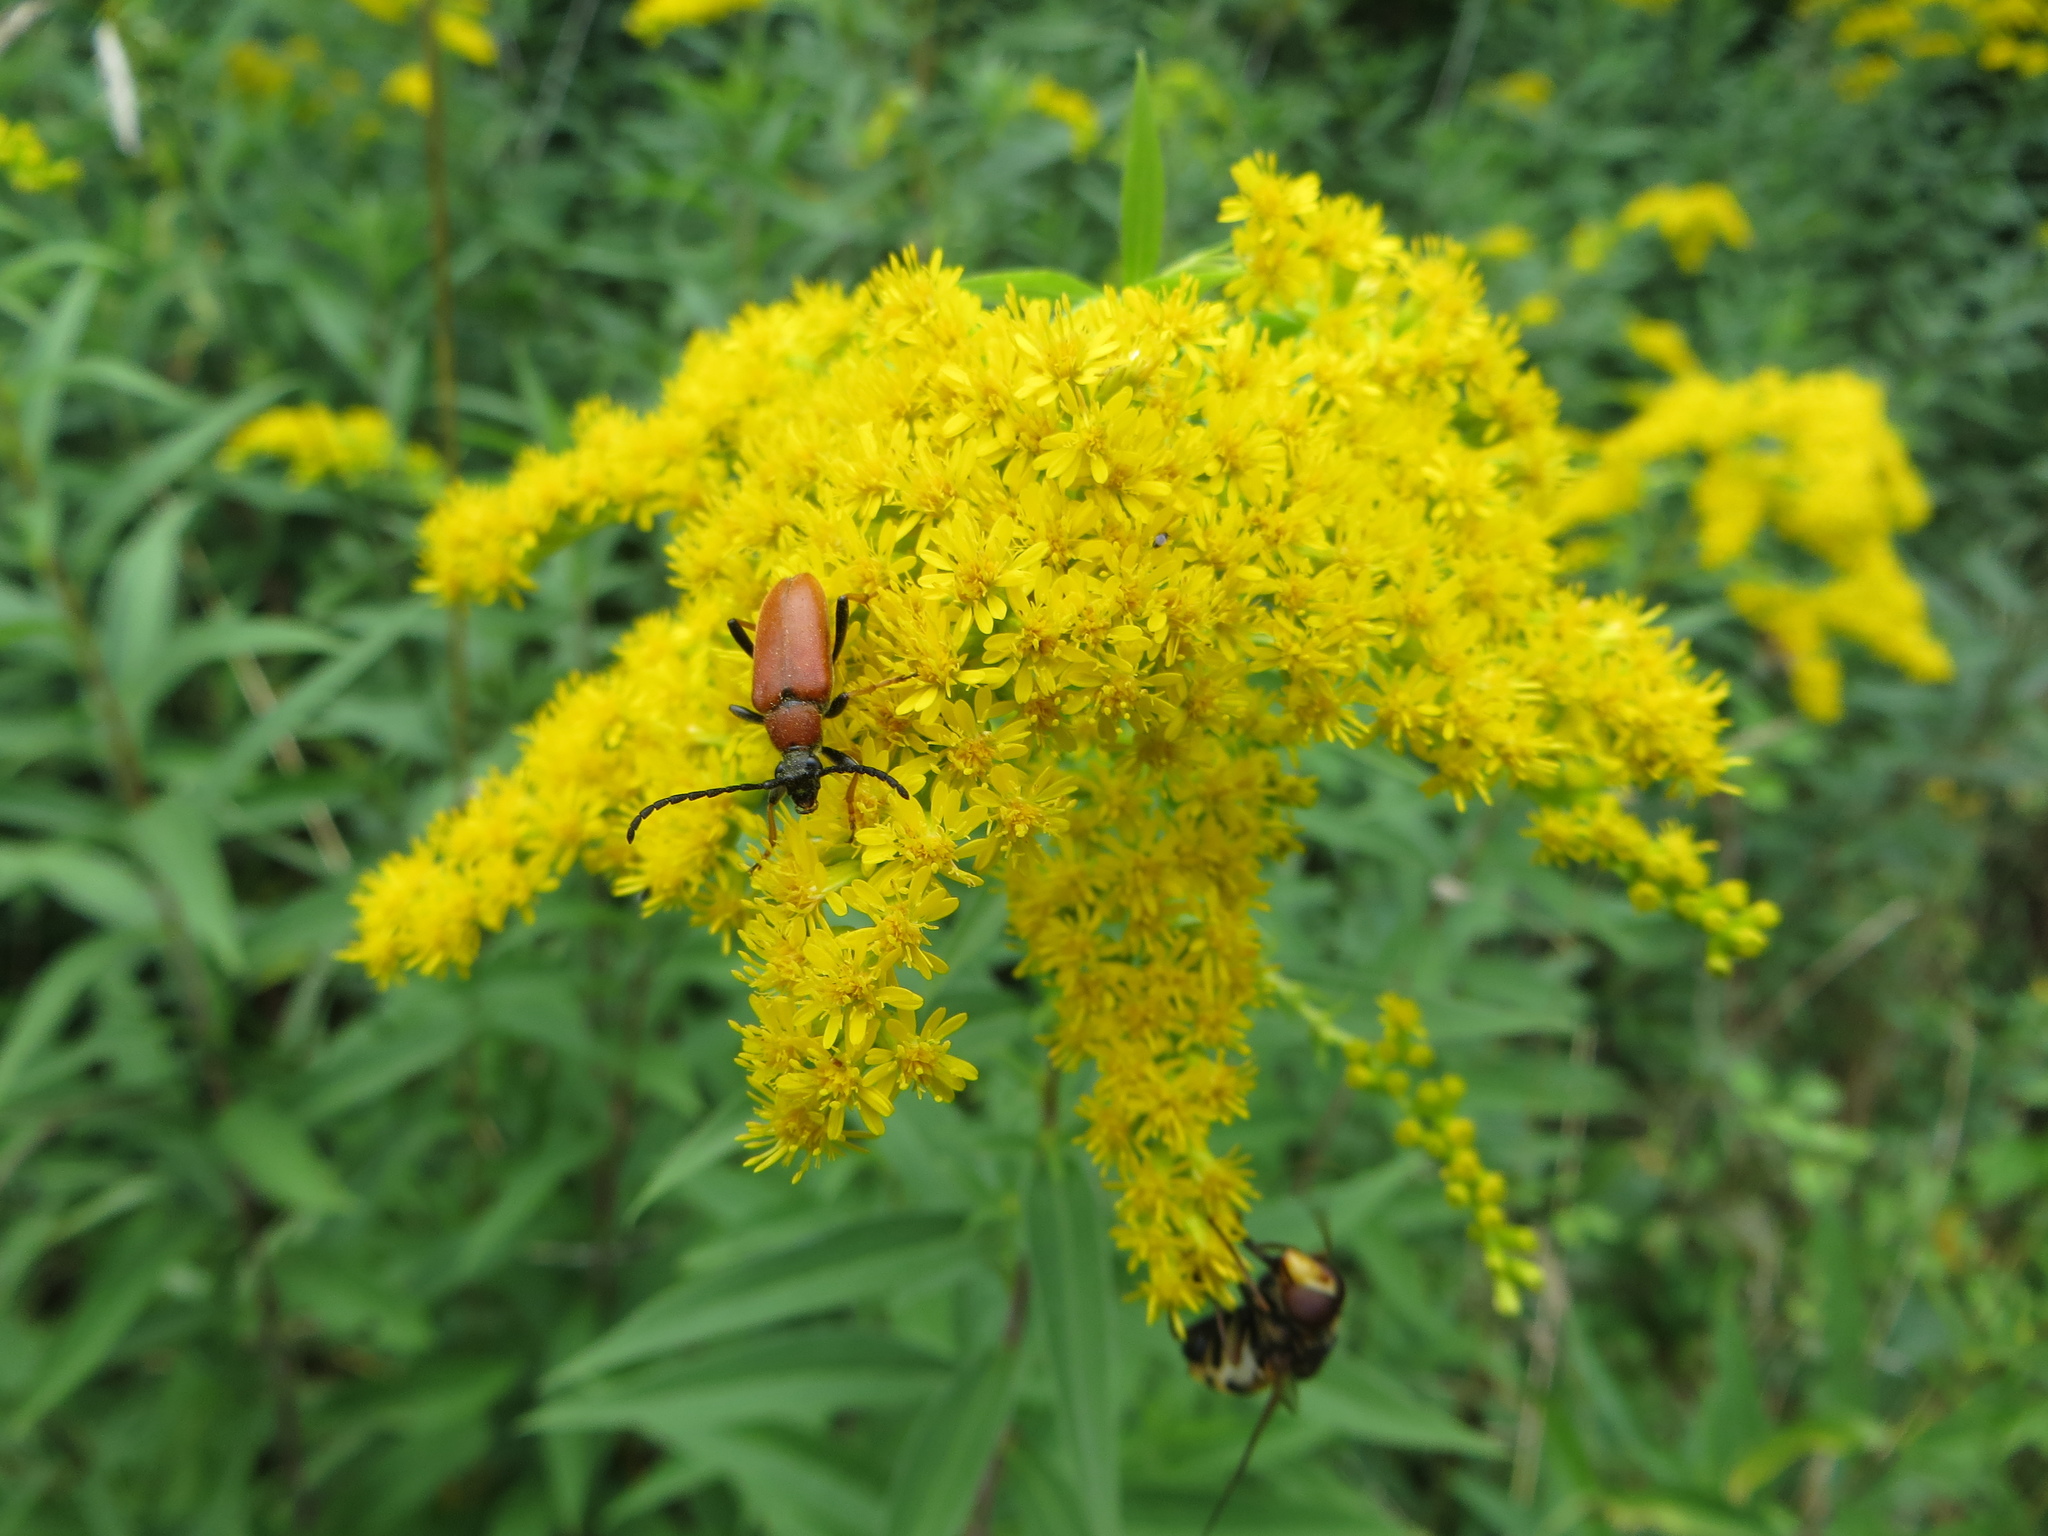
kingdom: Animalia
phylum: Arthropoda
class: Insecta
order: Coleoptera
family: Cerambycidae
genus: Stictoleptura
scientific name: Stictoleptura rubra
